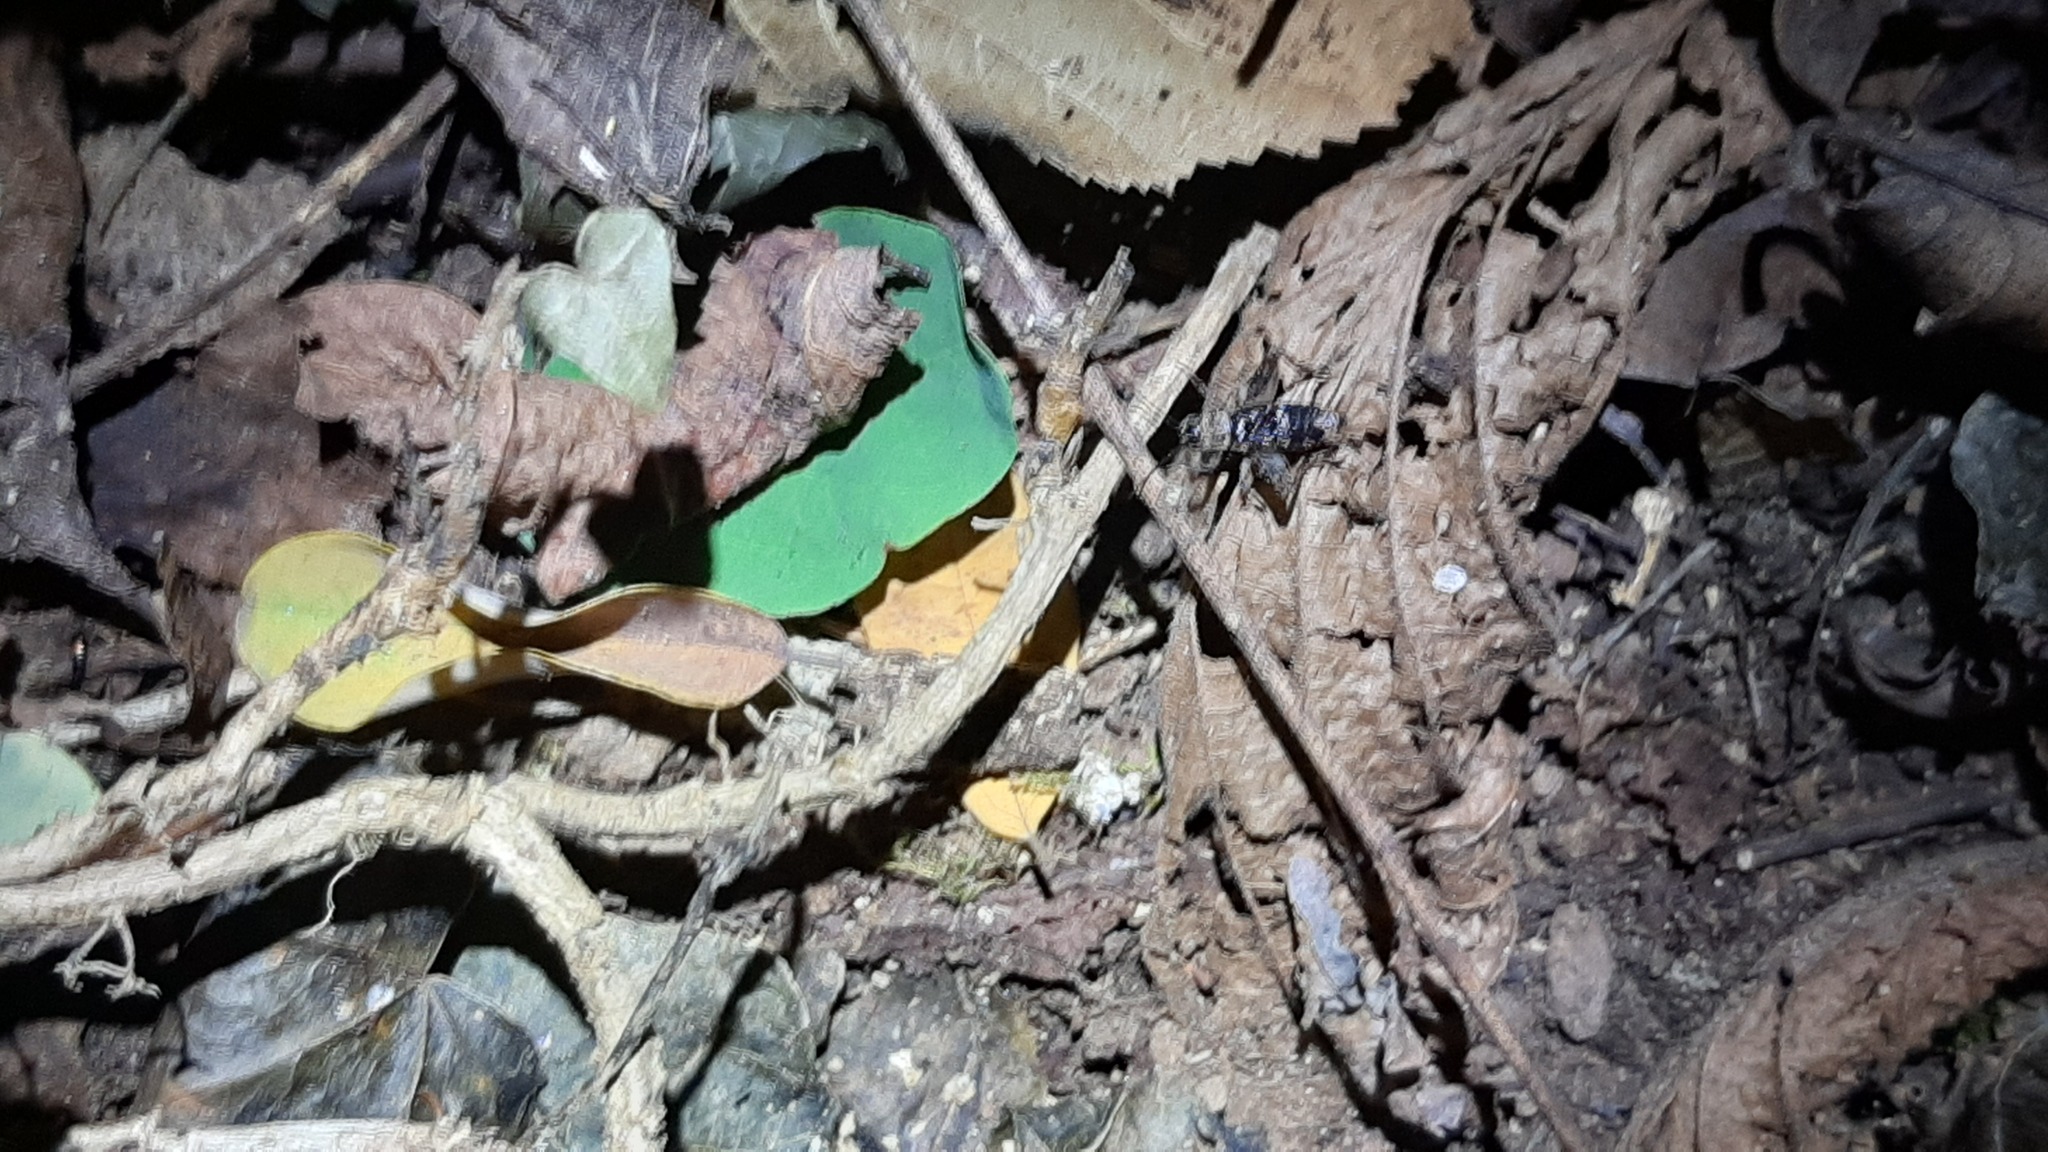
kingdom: Animalia
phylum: Arthropoda
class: Insecta
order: Orthoptera
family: Trigonidiidae
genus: Nemobius
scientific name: Nemobius sylvestris
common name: Wood-cricket
